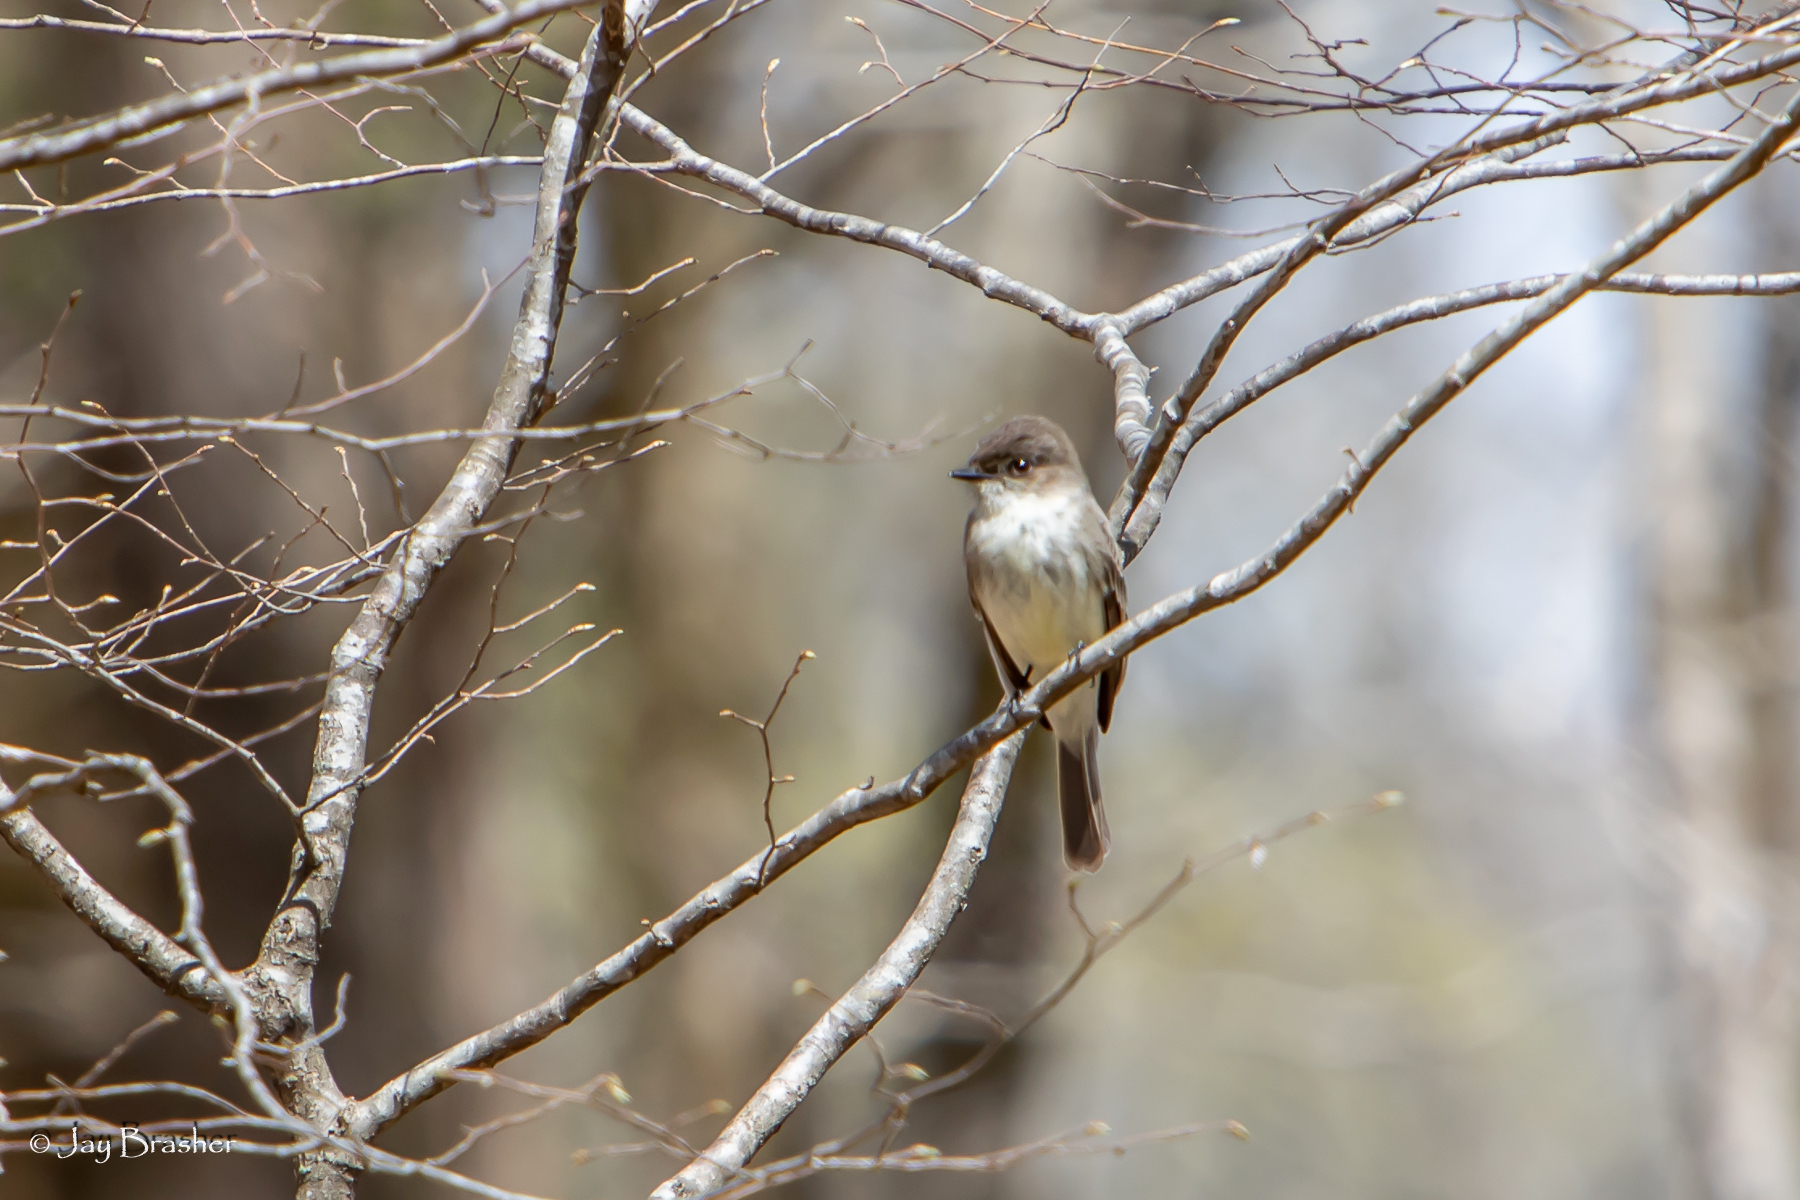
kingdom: Animalia
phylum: Chordata
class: Aves
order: Passeriformes
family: Tyrannidae
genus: Sayornis
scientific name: Sayornis phoebe
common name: Eastern phoebe
